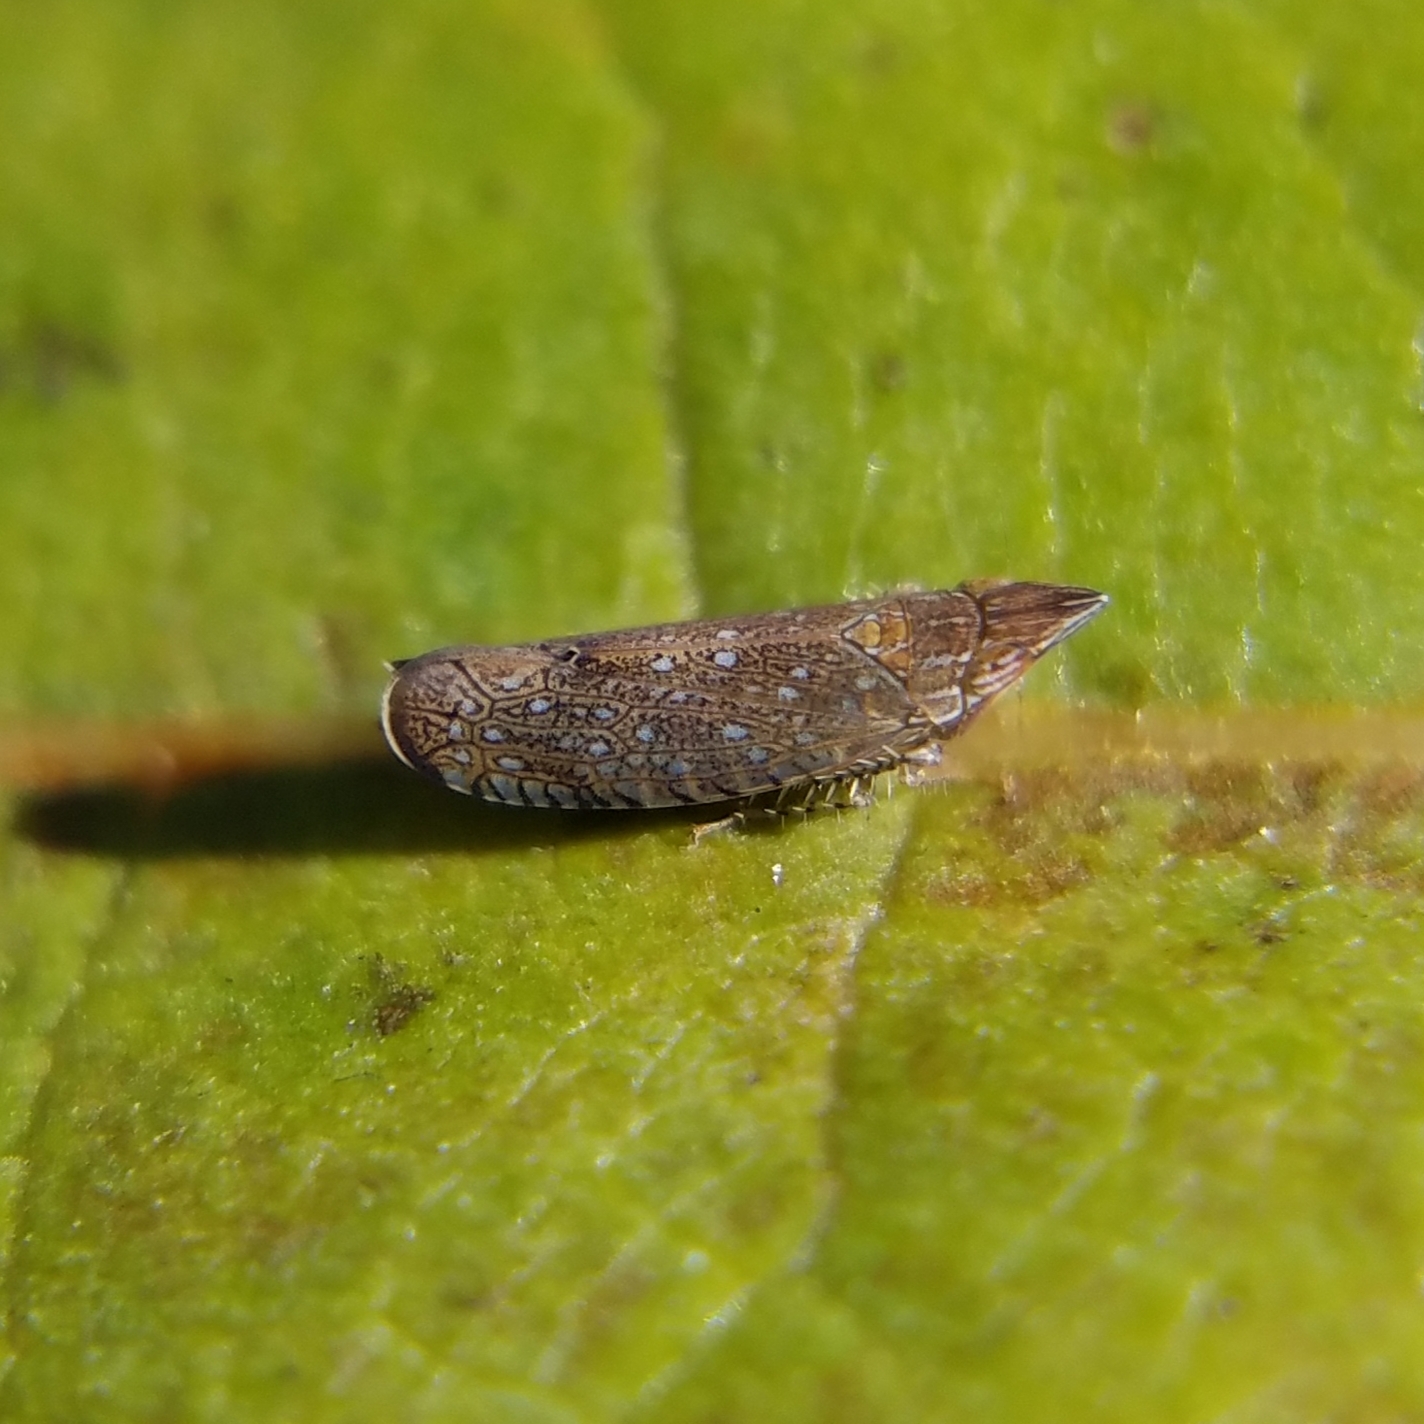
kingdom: Animalia
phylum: Arthropoda
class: Insecta
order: Hemiptera
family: Cicadellidae
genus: Scaphytopius
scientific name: Scaphytopius acutus
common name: The sharp-nosed leafhopper
